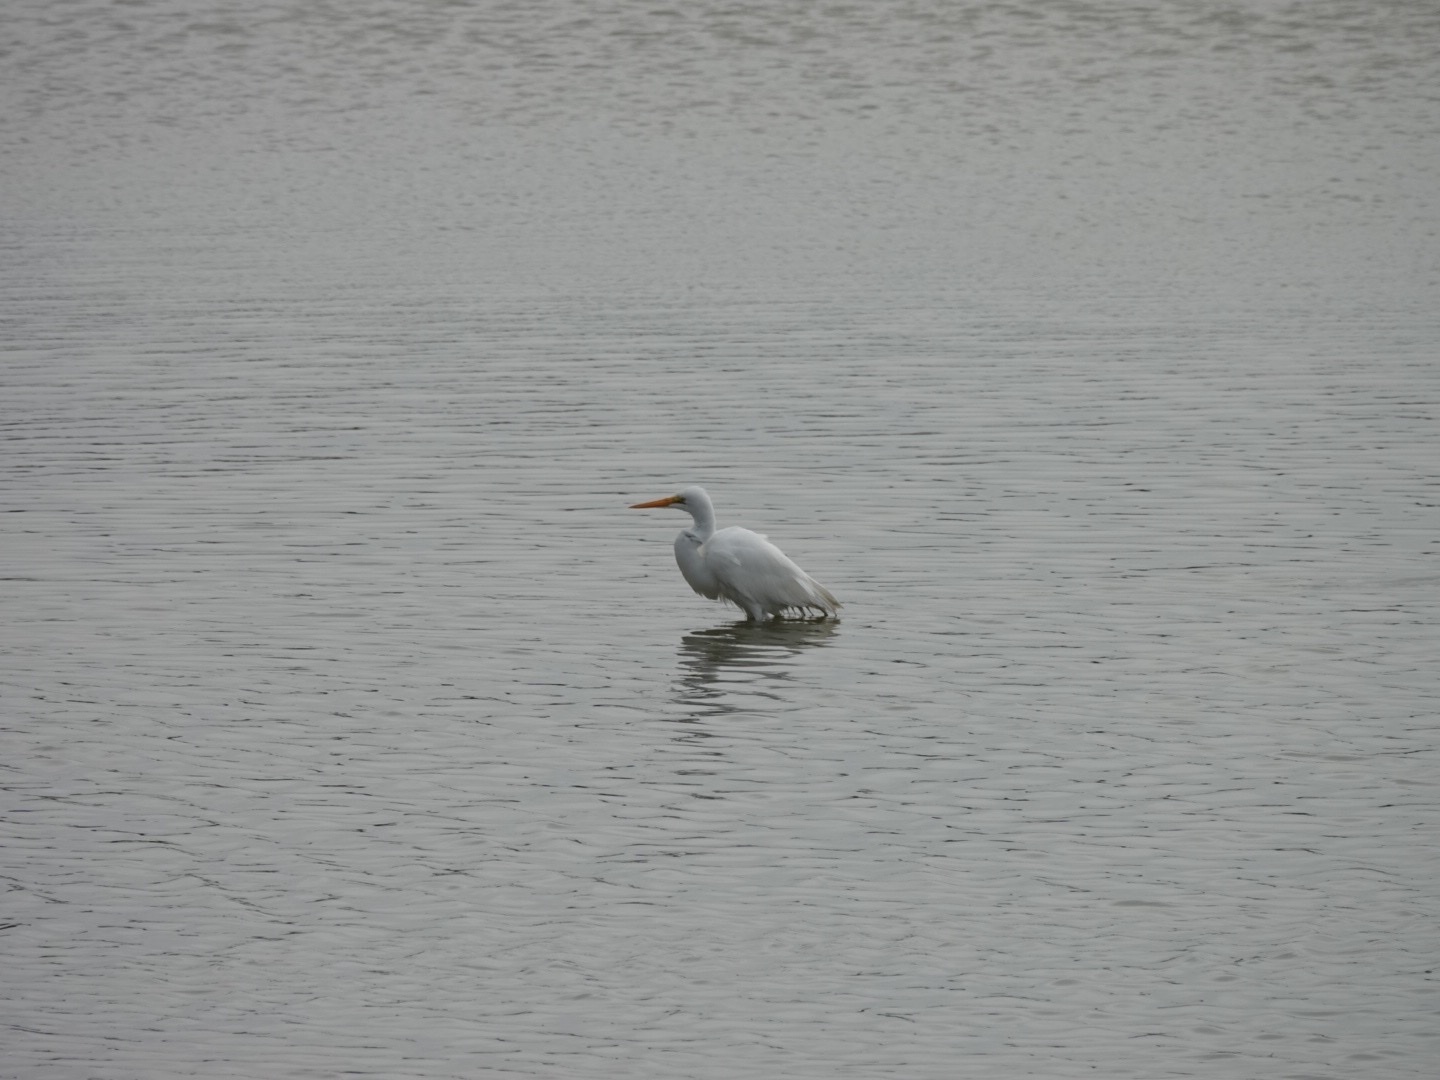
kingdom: Animalia
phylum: Chordata
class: Aves
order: Pelecaniformes
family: Ardeidae
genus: Ardea
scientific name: Ardea alba
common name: Great egret
